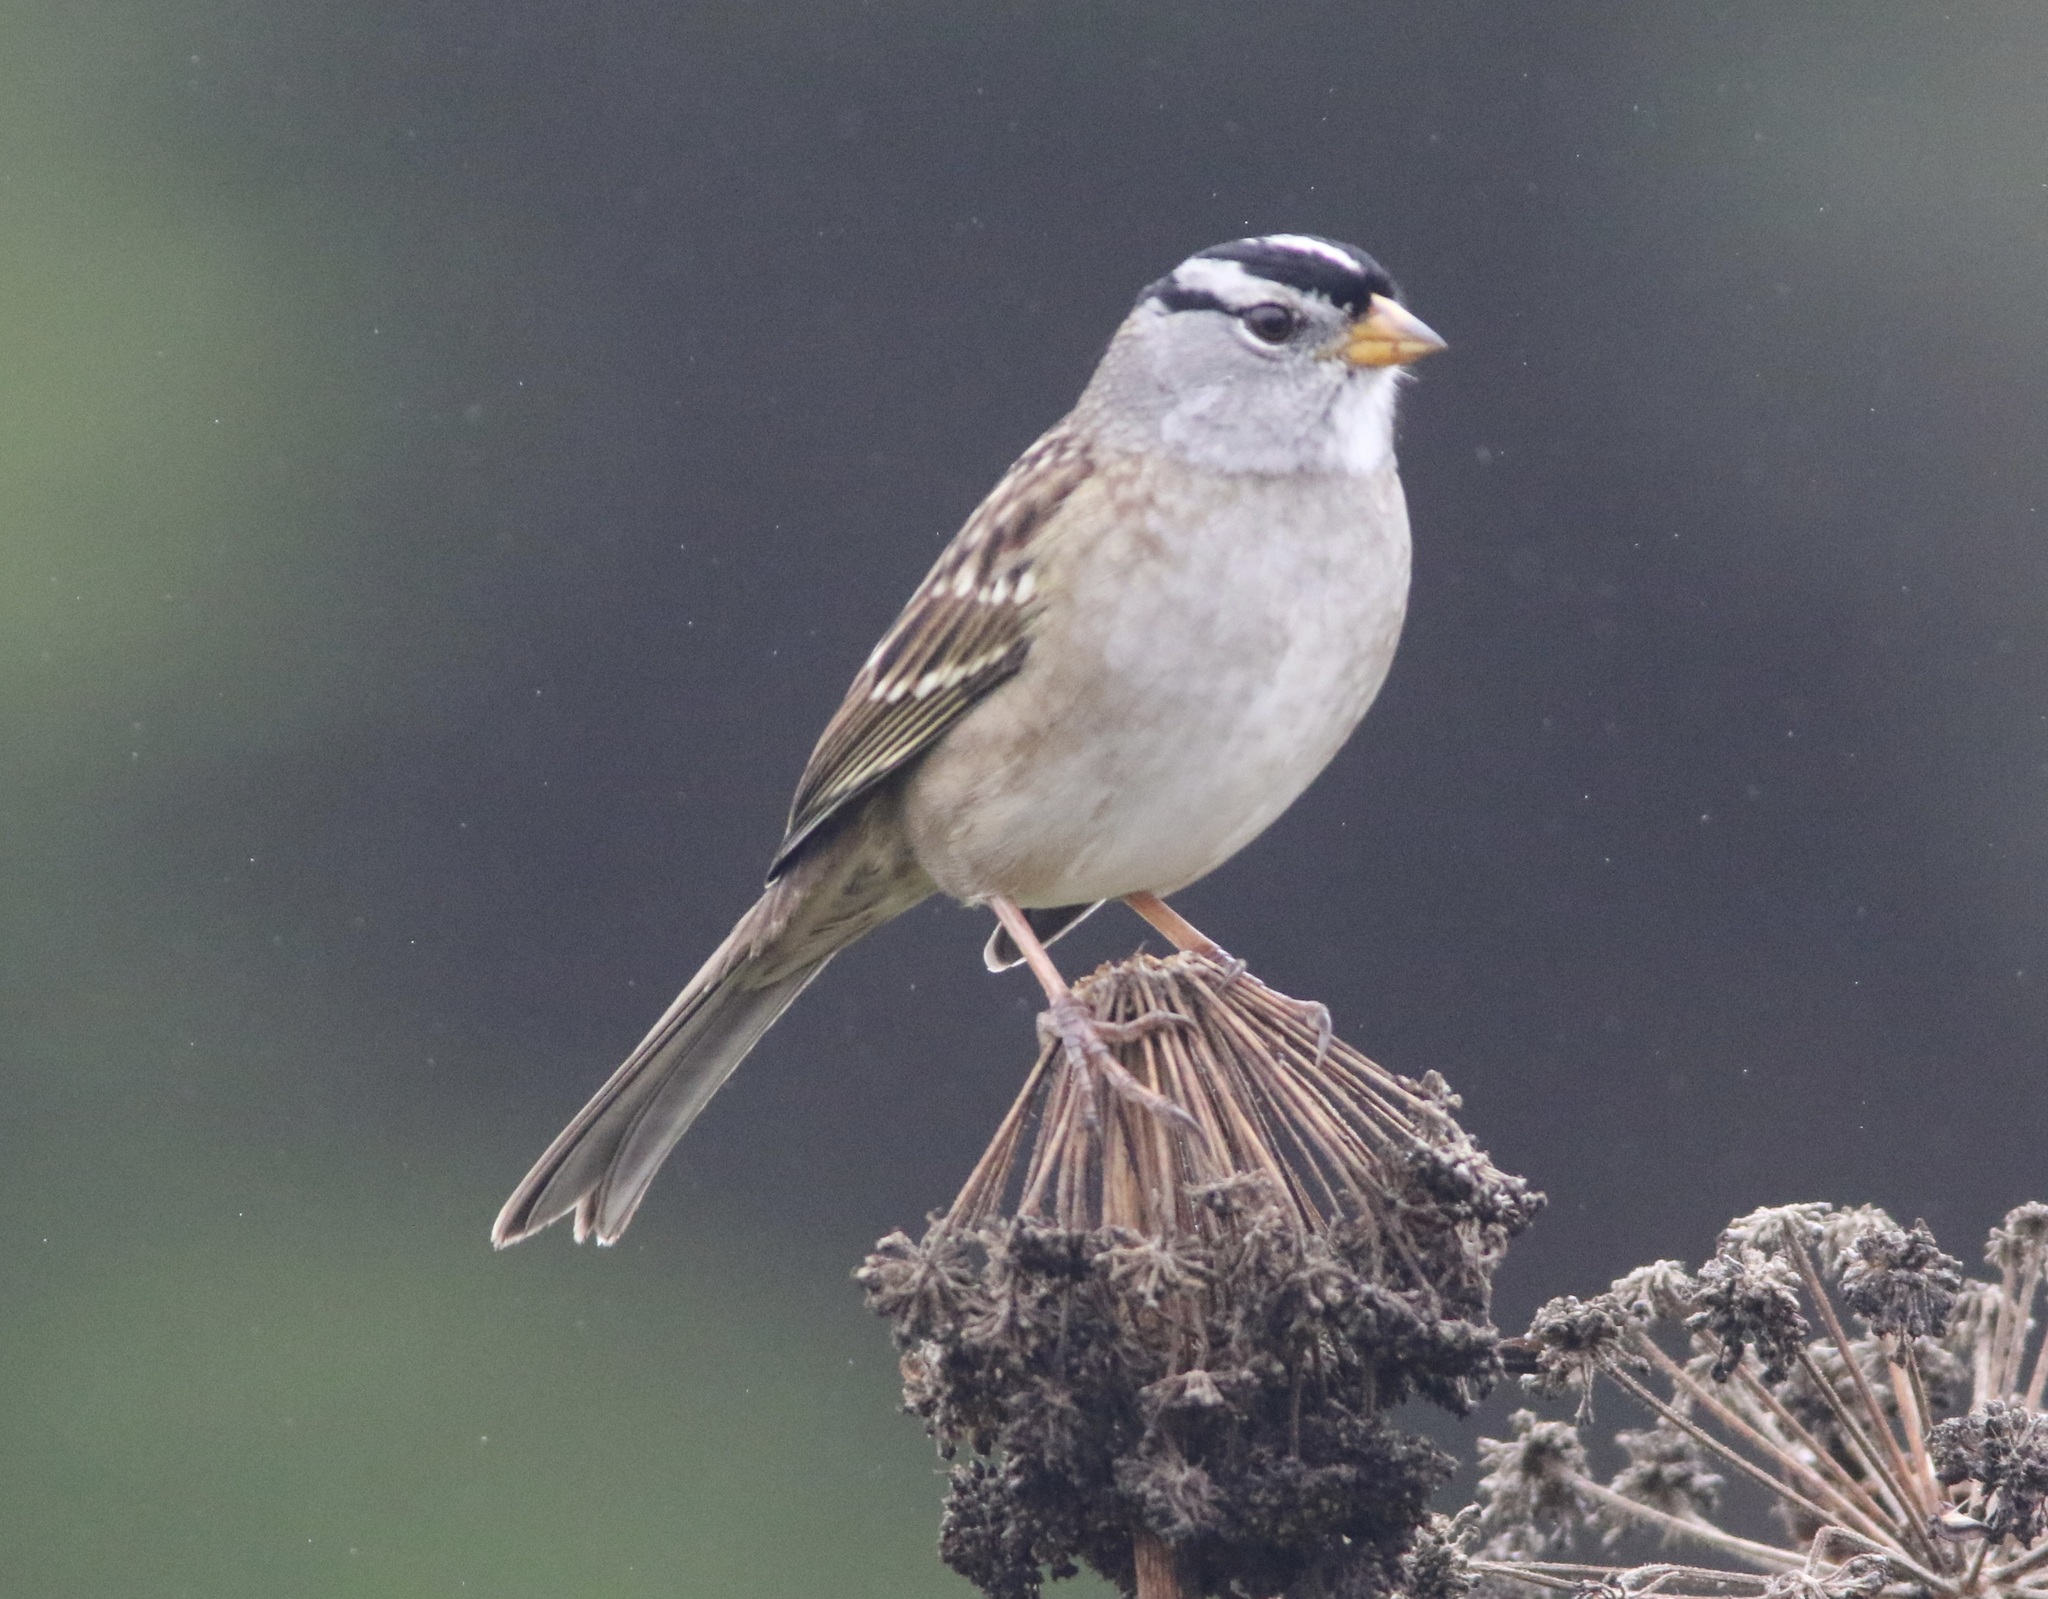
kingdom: Animalia
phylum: Chordata
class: Aves
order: Passeriformes
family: Passerellidae
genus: Zonotrichia
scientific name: Zonotrichia leucophrys
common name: White-crowned sparrow
